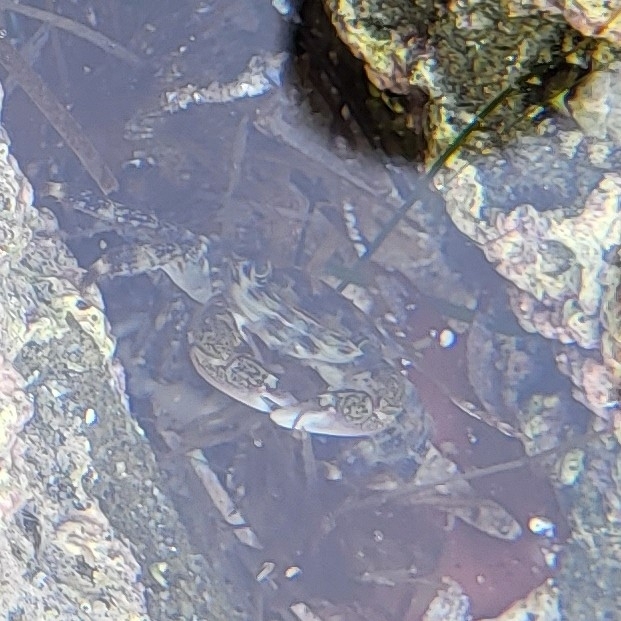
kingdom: Animalia
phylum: Arthropoda
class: Malacostraca
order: Decapoda
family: Grapsidae
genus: Pachygrapsus
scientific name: Pachygrapsus crassipes
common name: Striped shore crab
